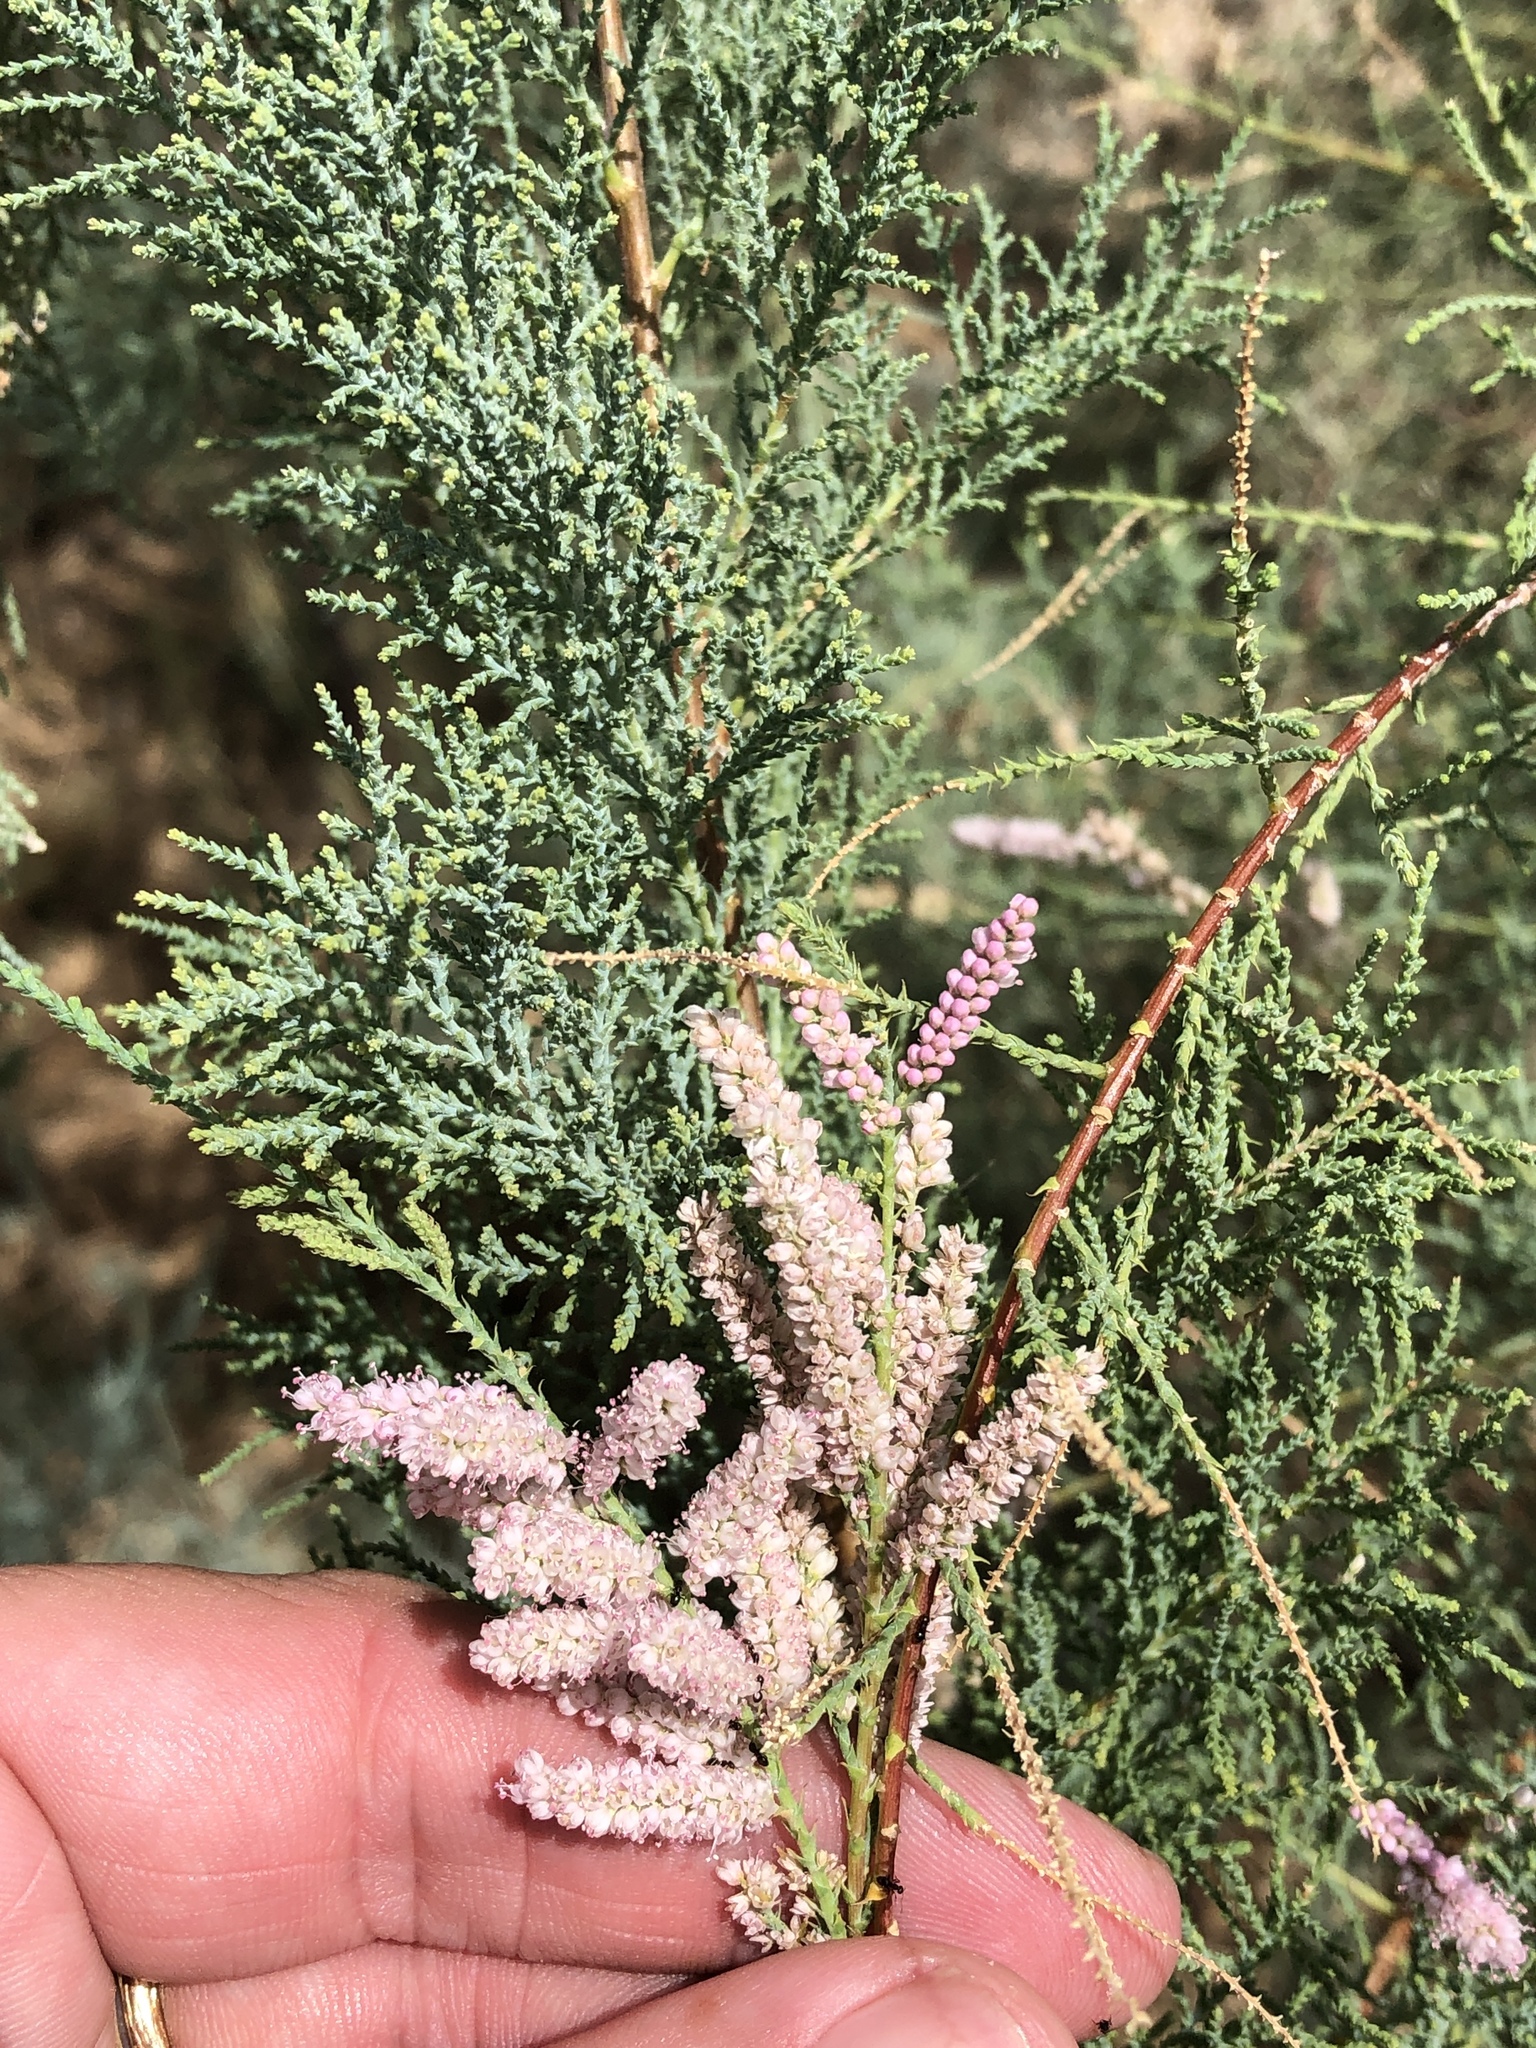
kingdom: Plantae
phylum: Tracheophyta
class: Magnoliopsida
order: Caryophyllales
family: Tamaricaceae
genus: Tamarix
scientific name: Tamarix
